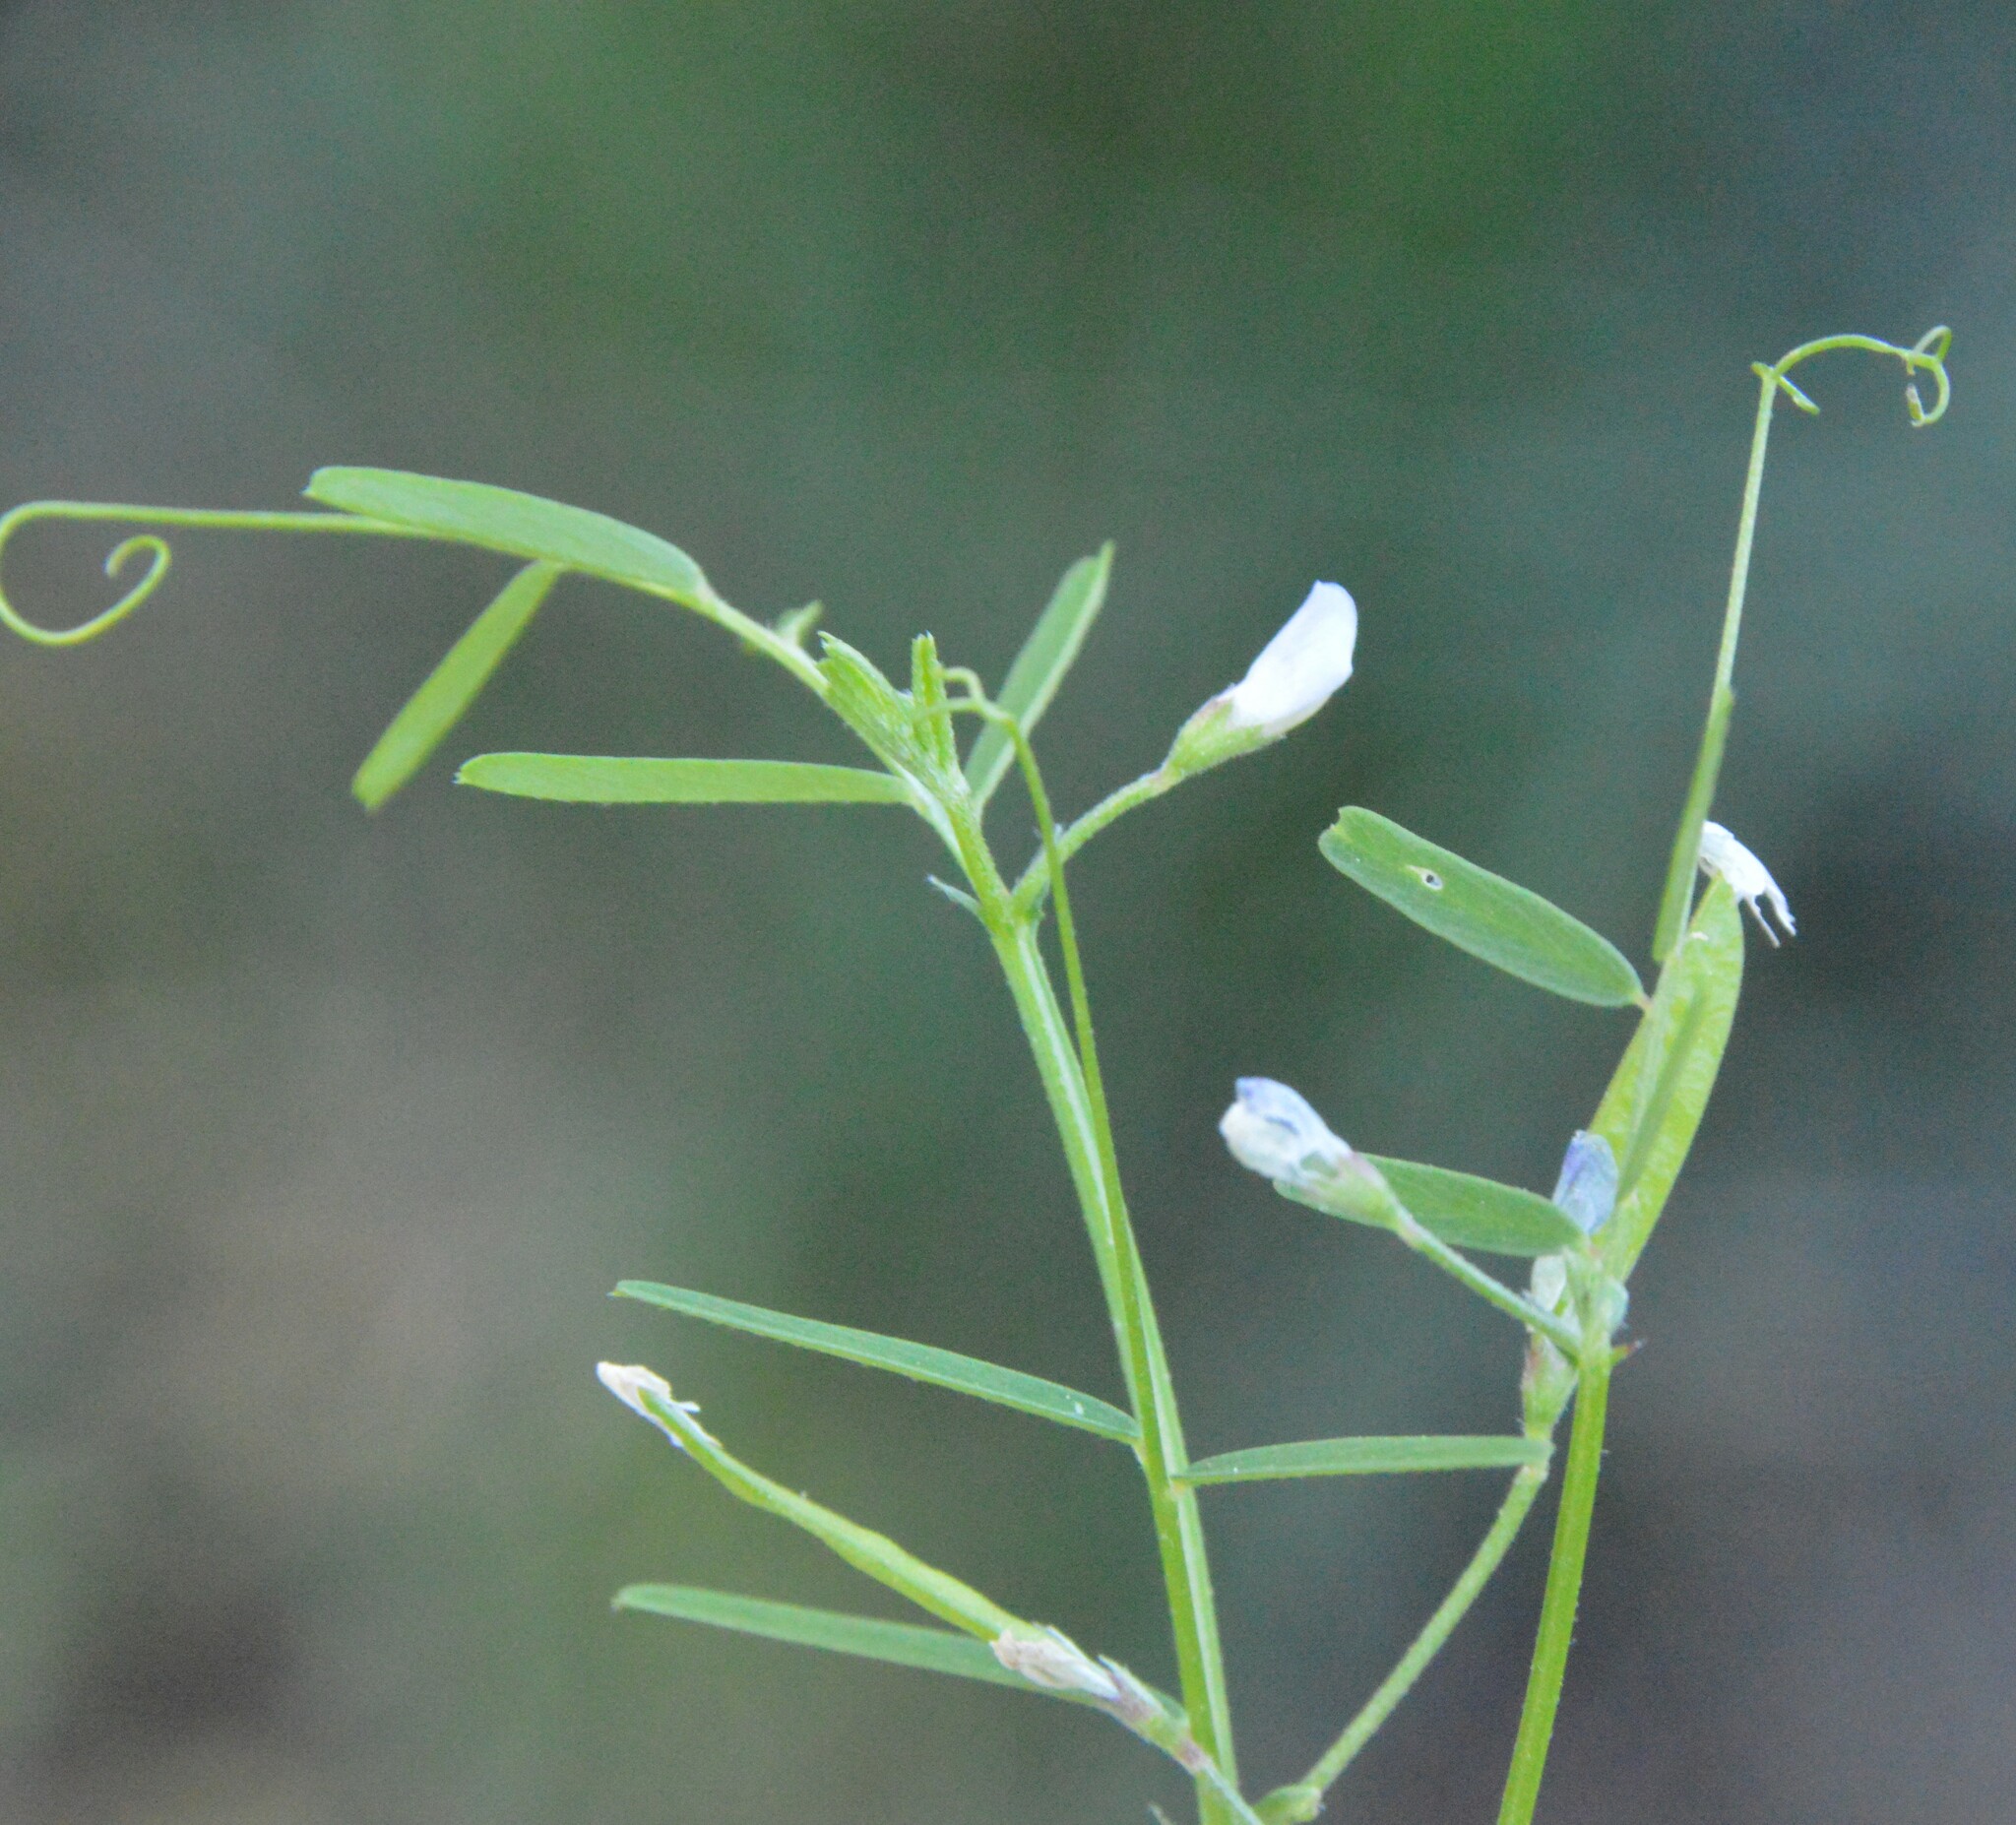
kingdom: Plantae
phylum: Tracheophyta
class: Magnoliopsida
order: Fabales
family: Fabaceae
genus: Vicia
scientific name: Vicia minutiflora
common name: Pygmy-flower vetch
